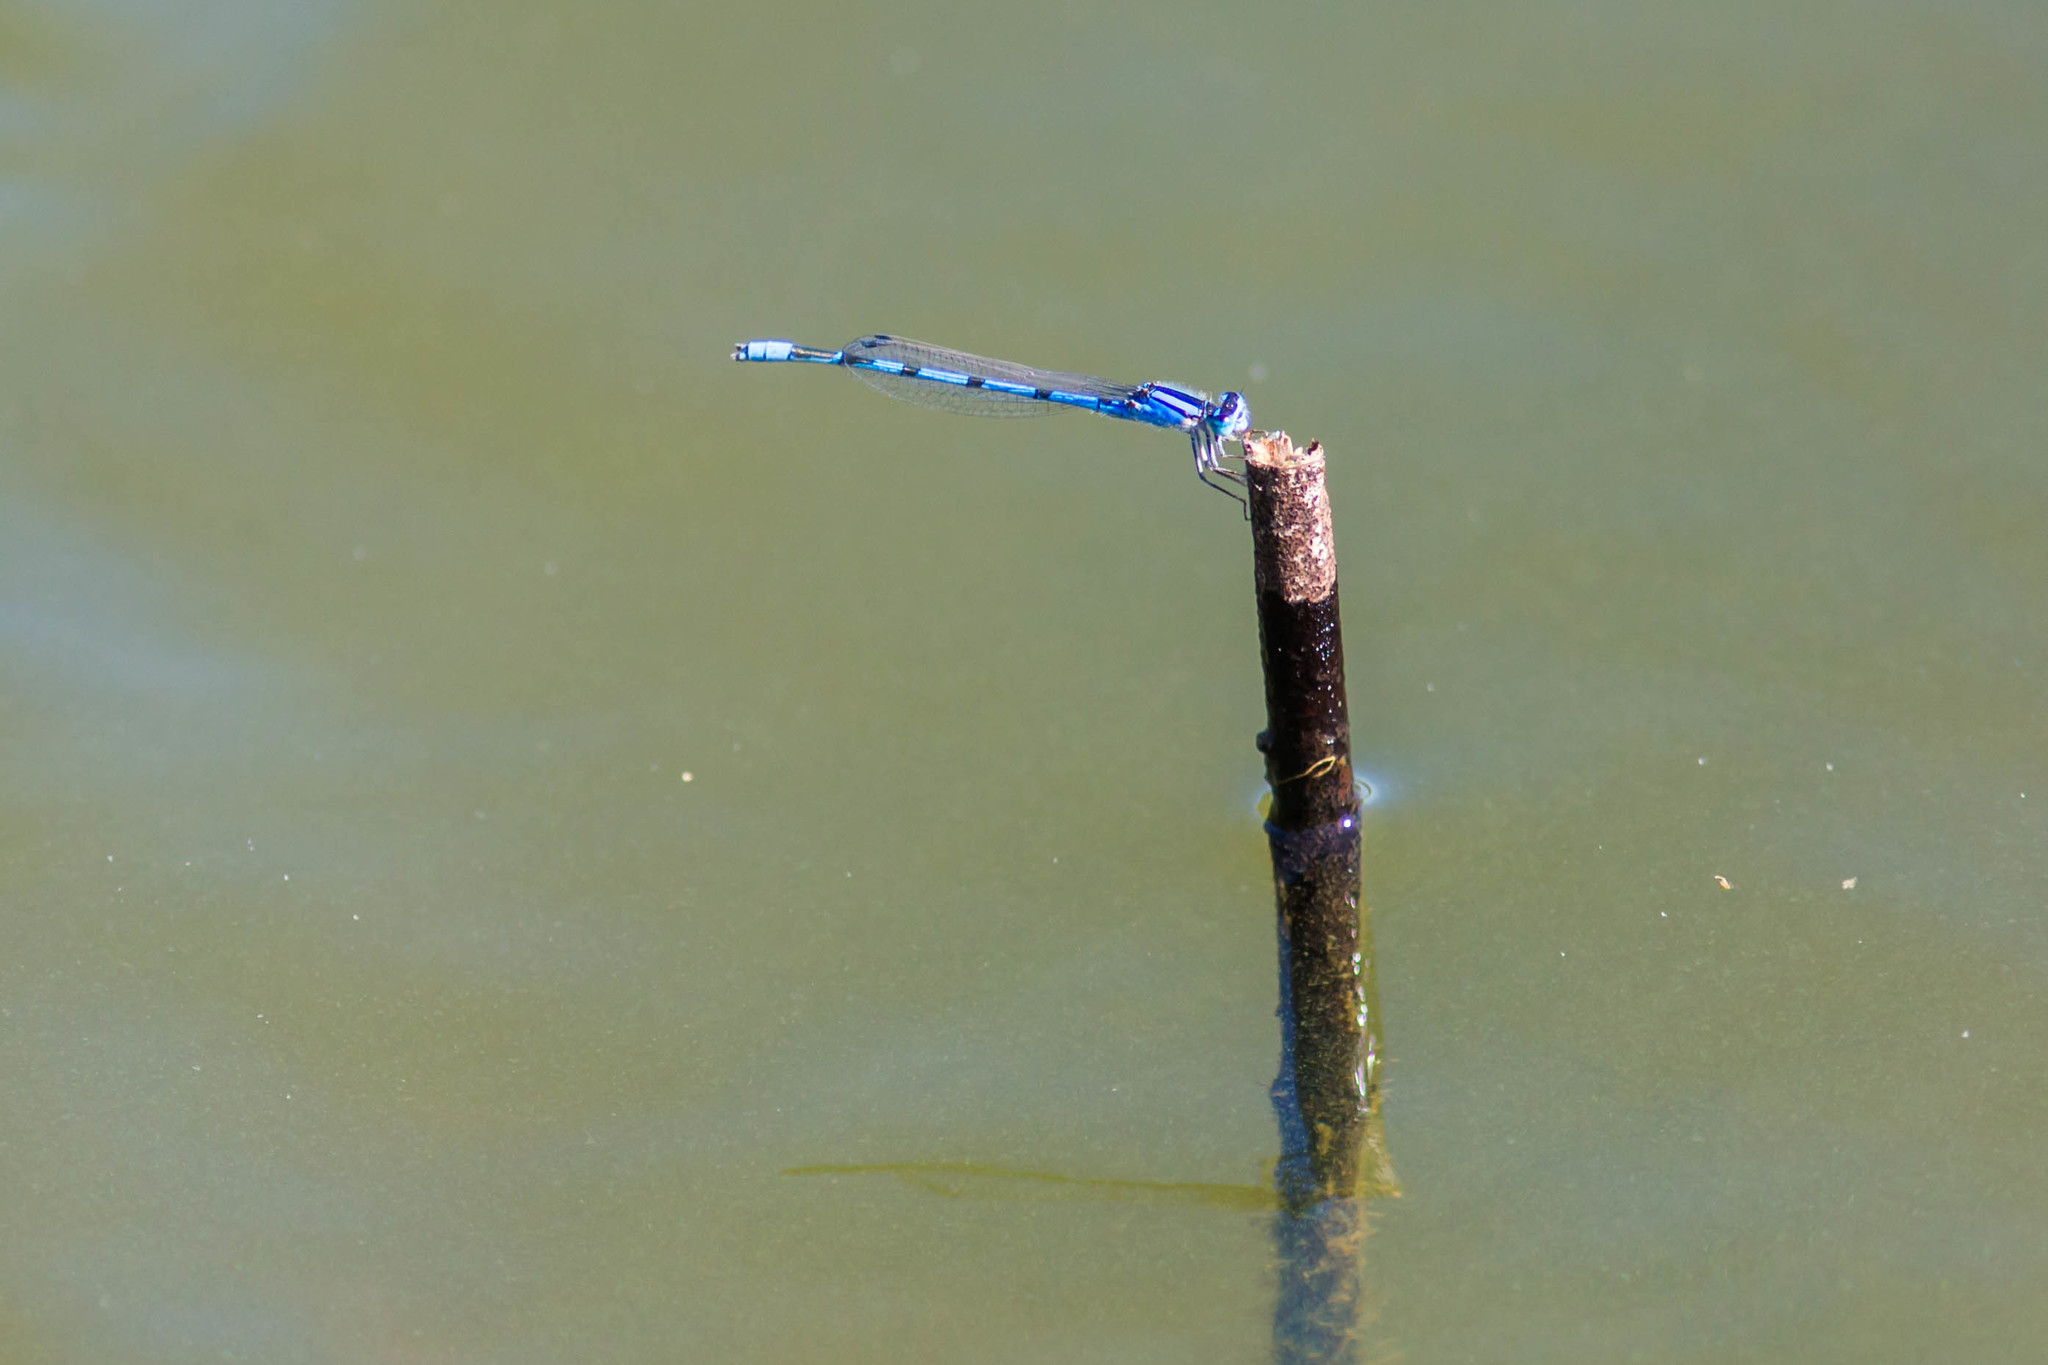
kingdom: Animalia
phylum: Arthropoda
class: Insecta
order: Odonata
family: Coenagrionidae
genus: Enallagma
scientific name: Enallagma civile
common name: Damselfly
